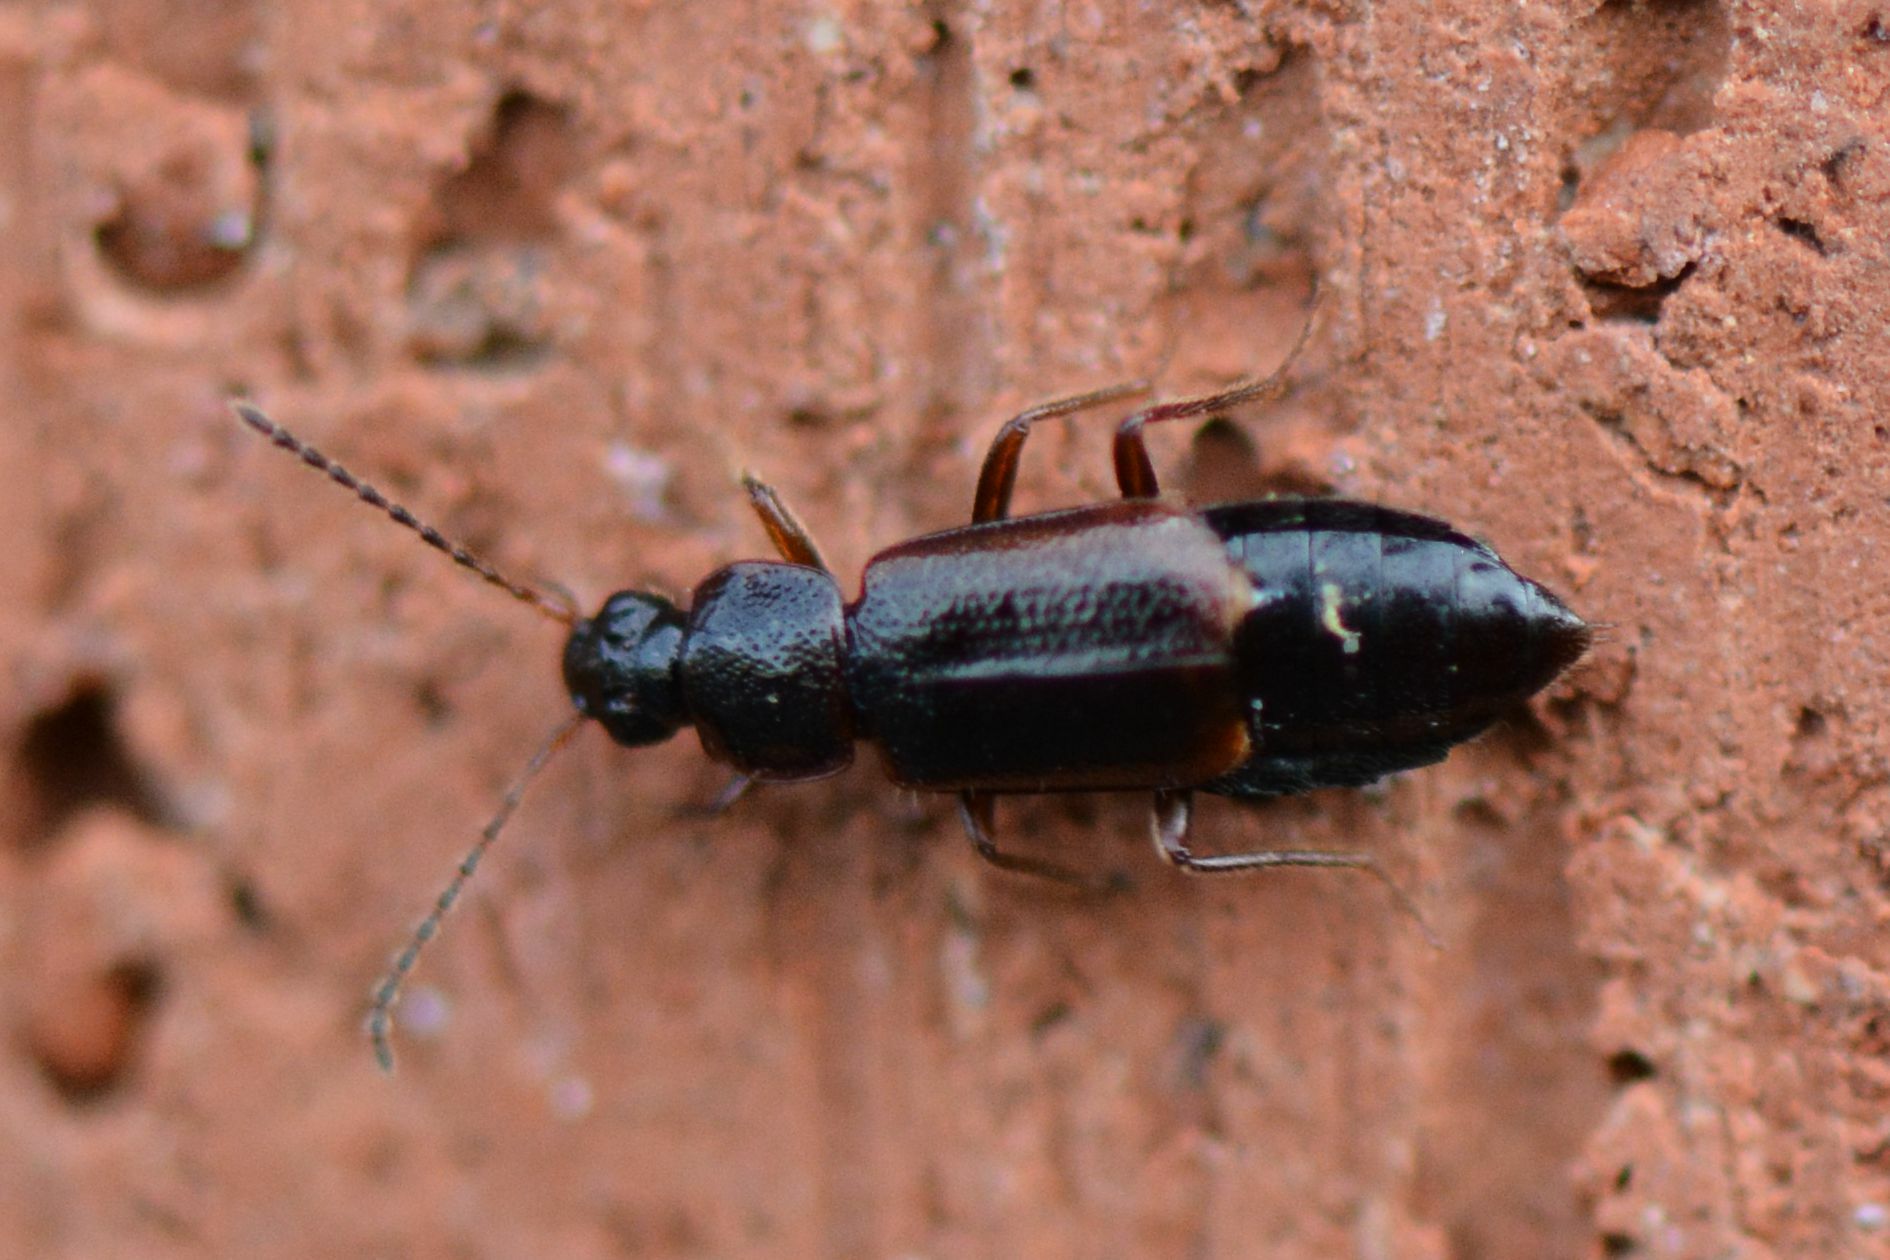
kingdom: Animalia
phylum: Arthropoda
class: Insecta
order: Coleoptera
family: Staphylinidae
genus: Arpedium
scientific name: Arpedium quadrum
